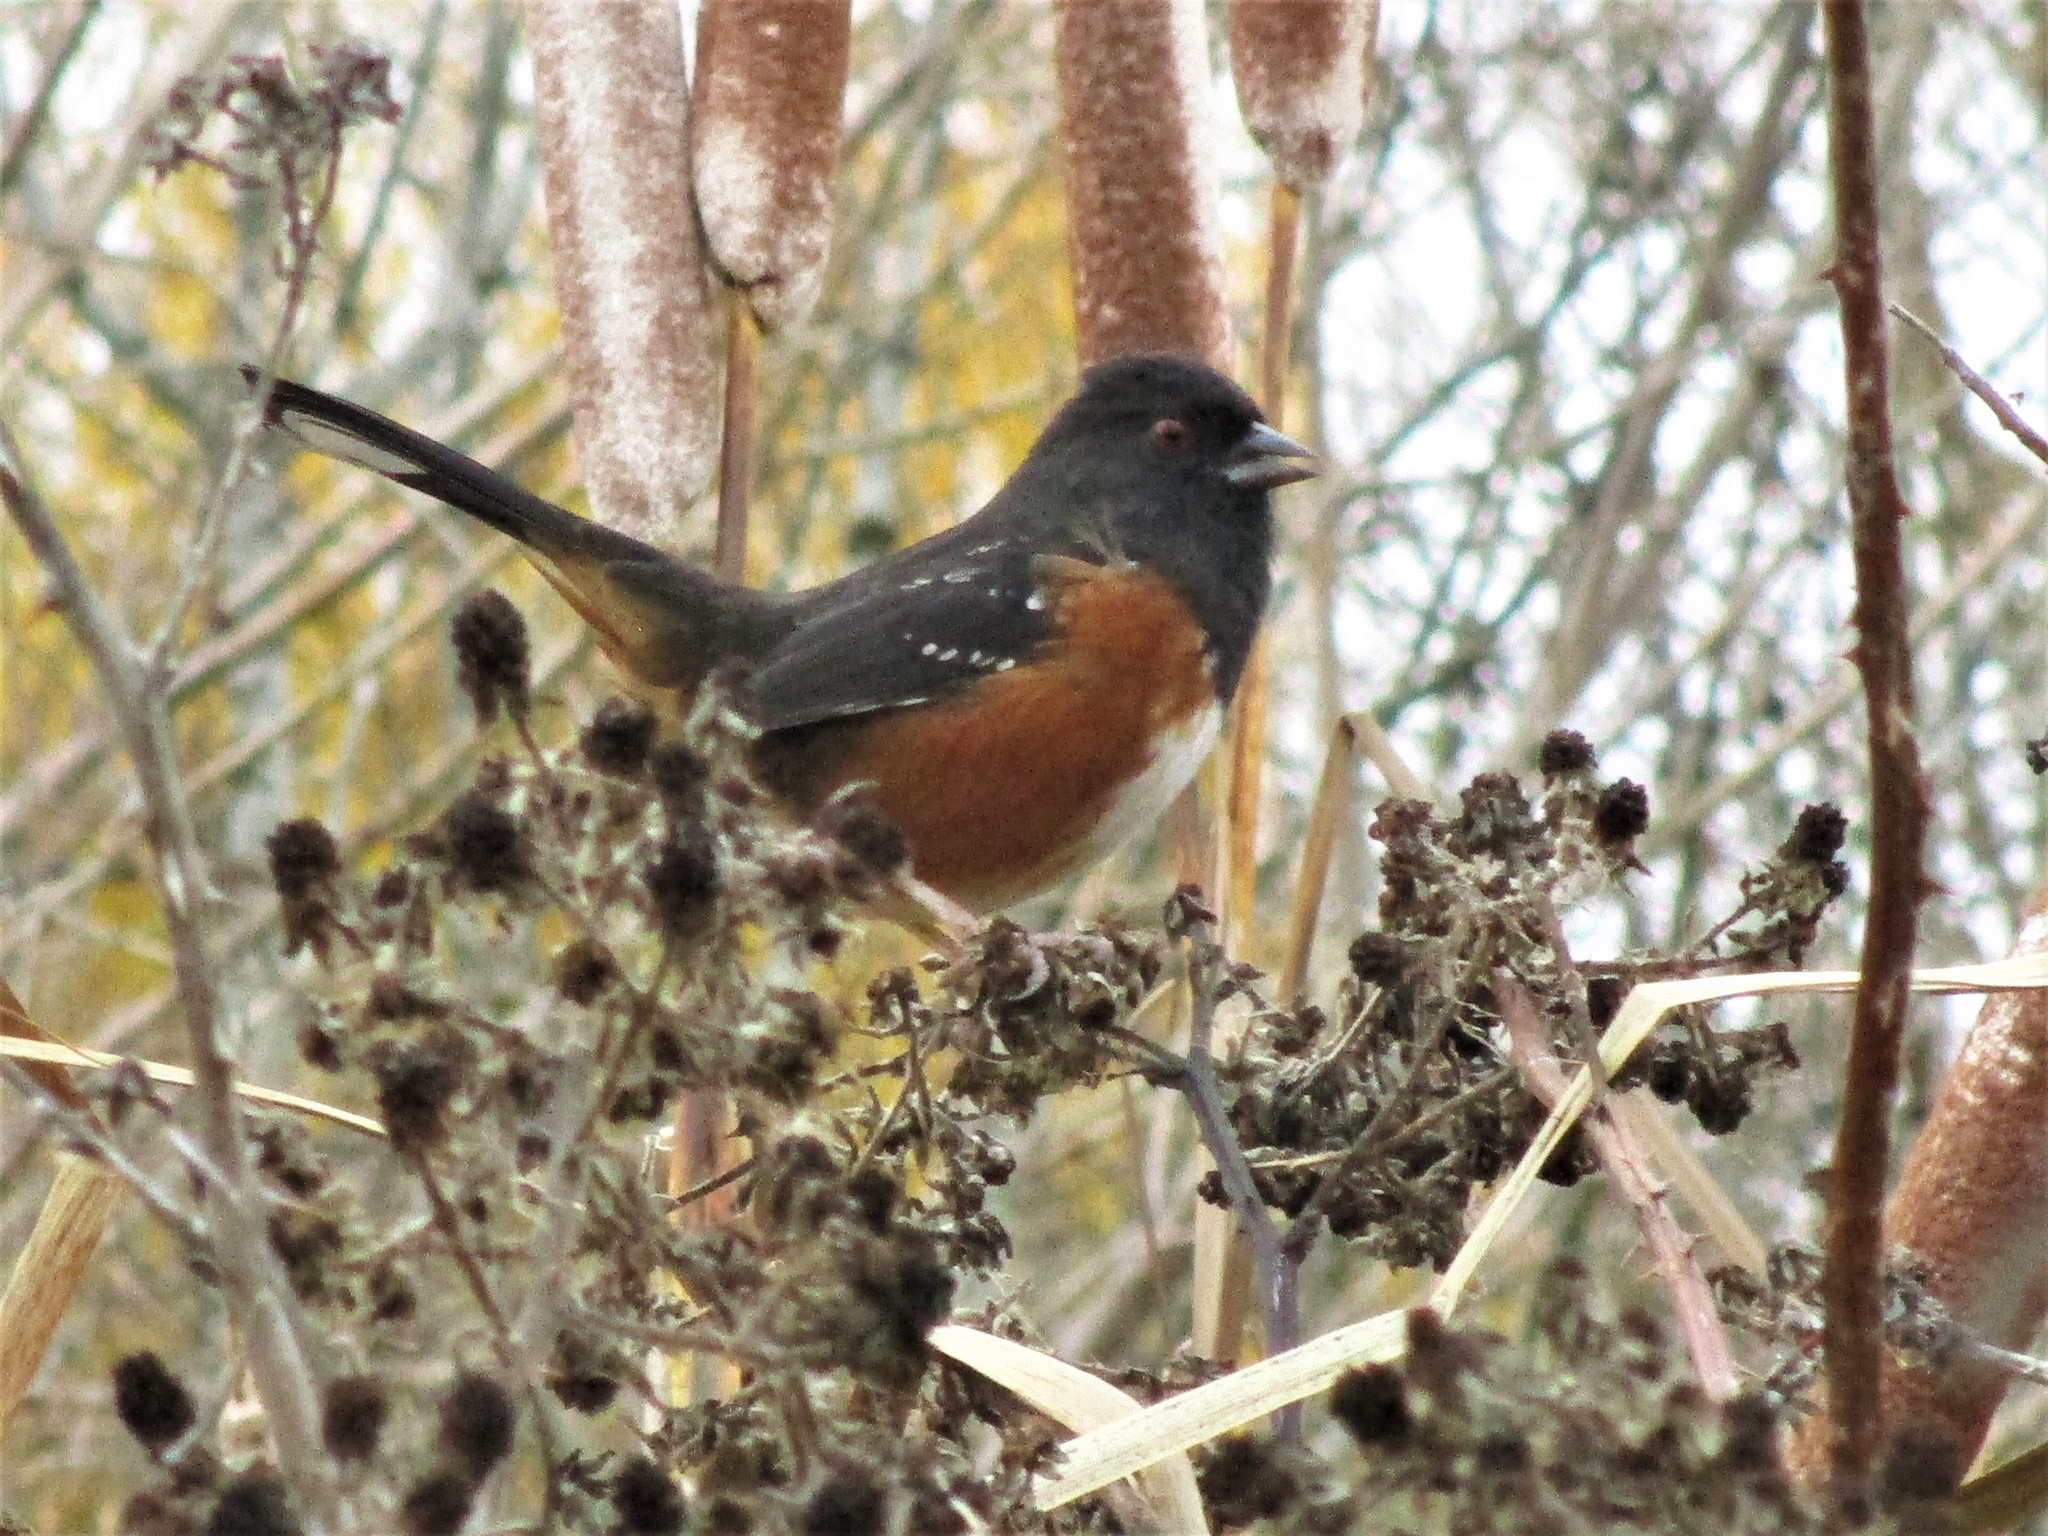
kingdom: Animalia
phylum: Chordata
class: Aves
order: Passeriformes
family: Passerellidae
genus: Pipilo
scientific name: Pipilo maculatus
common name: Spotted towhee
